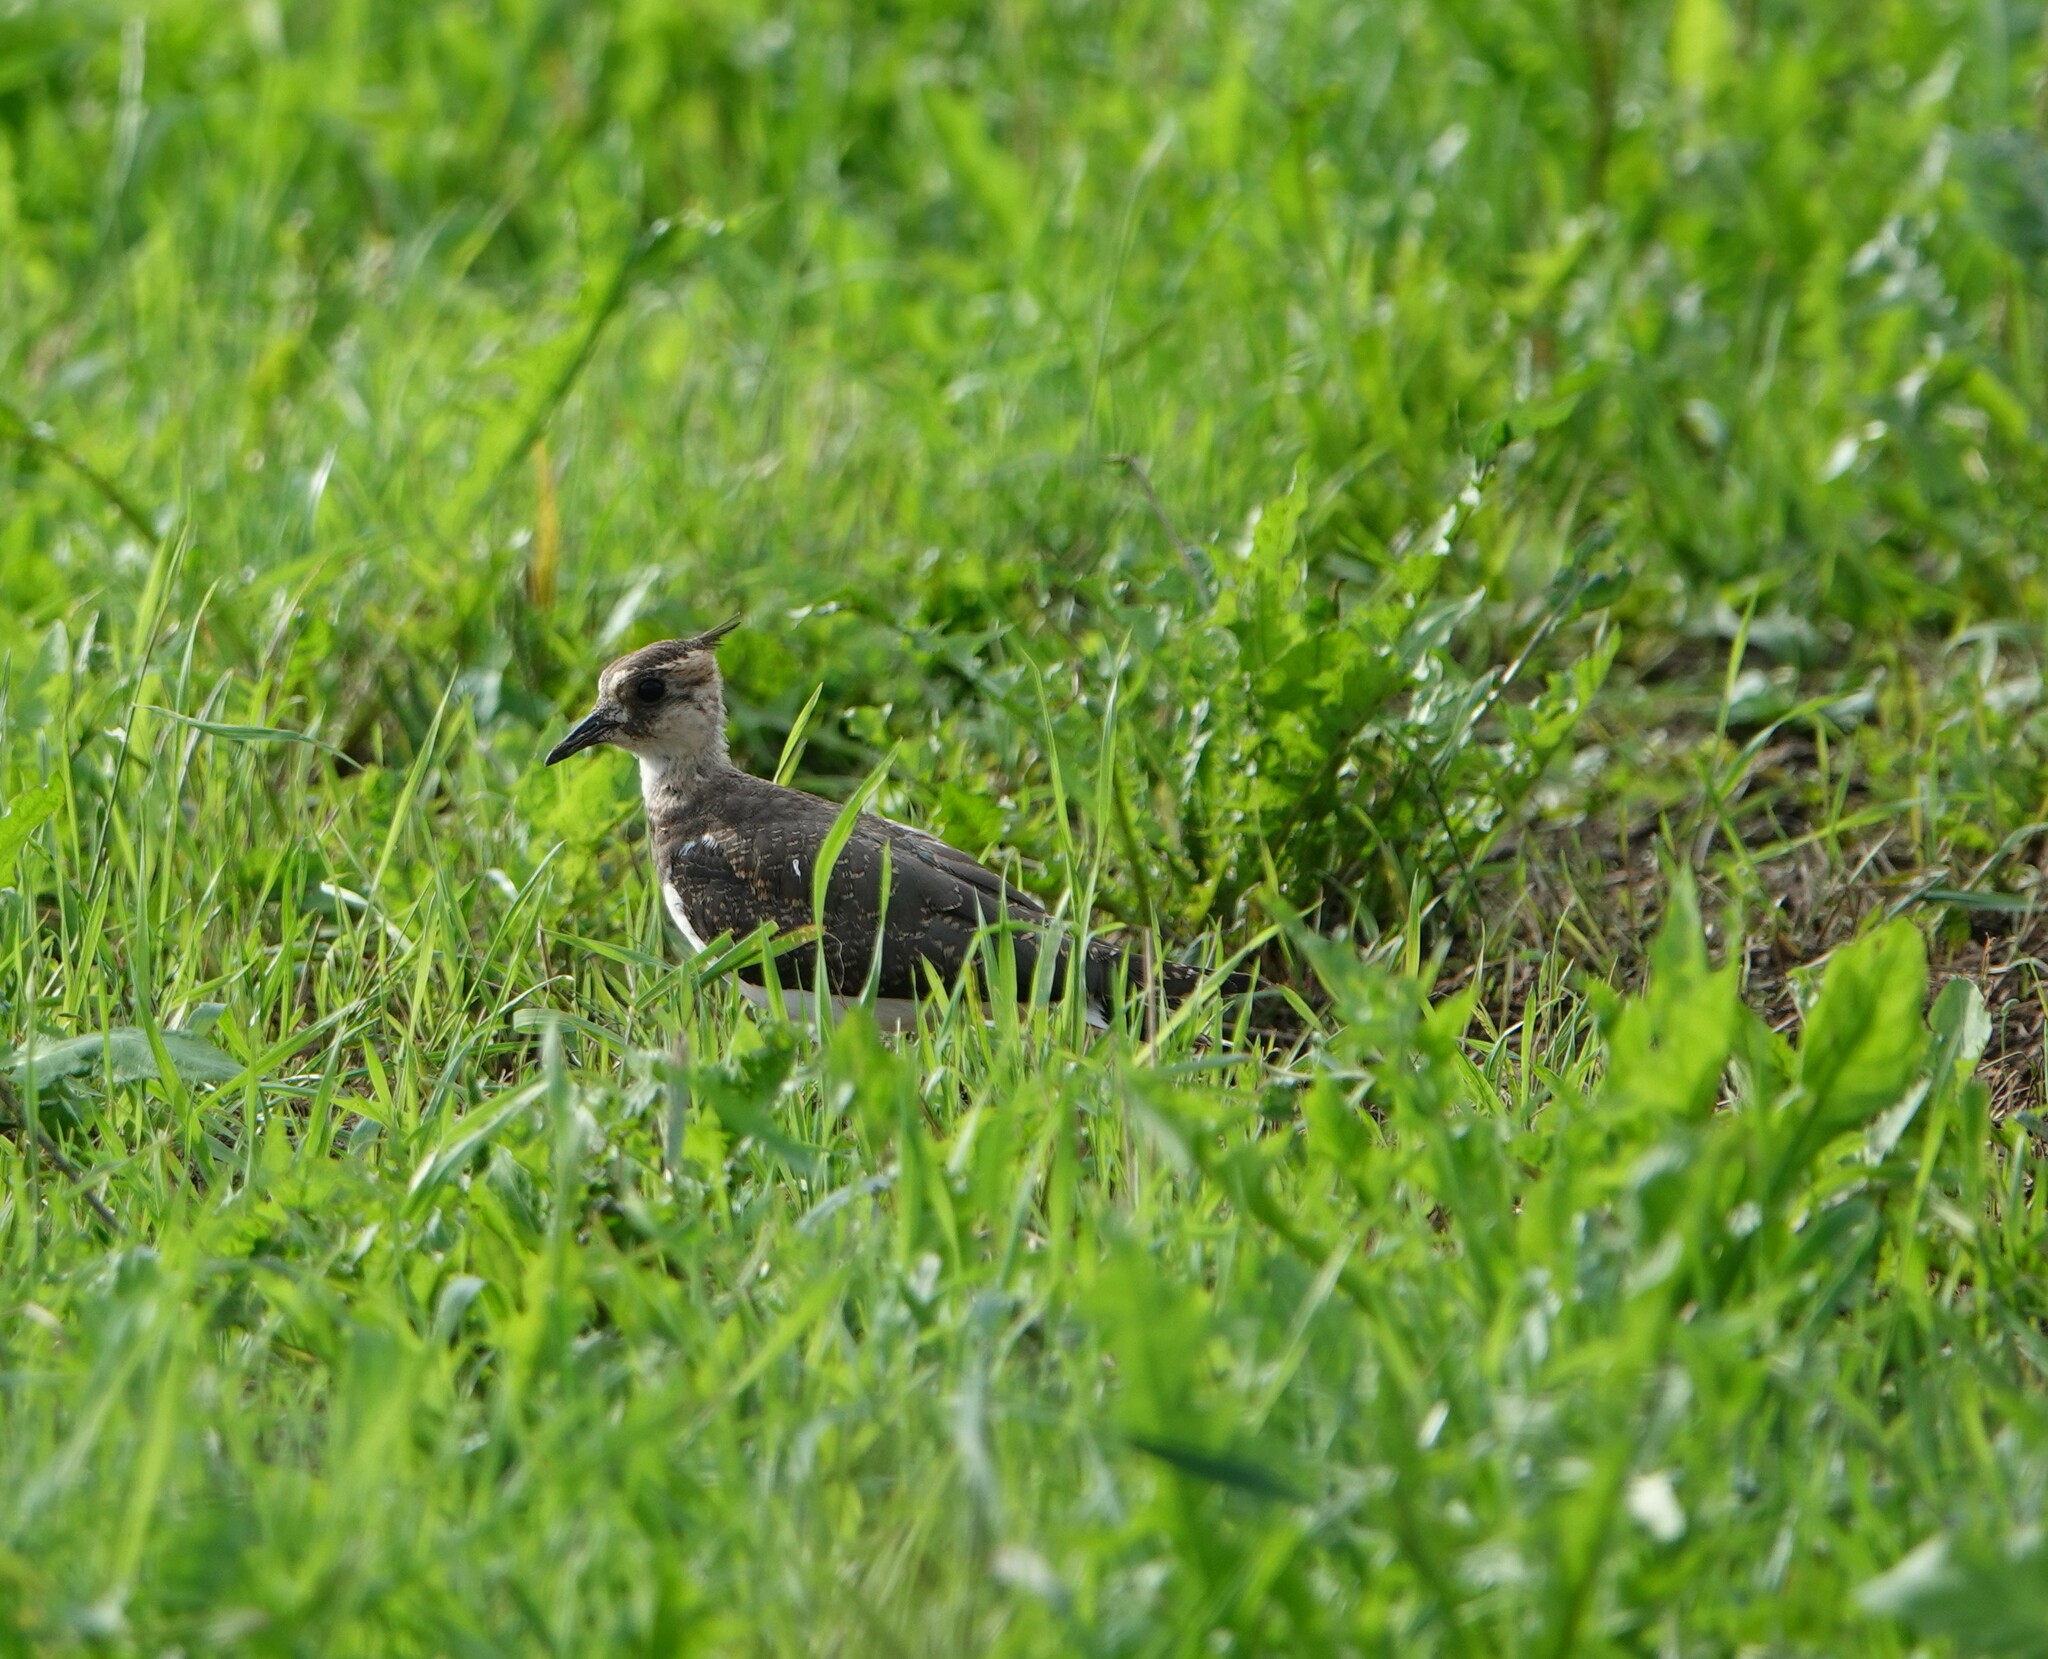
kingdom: Animalia
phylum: Chordata
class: Aves
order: Charadriiformes
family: Charadriidae
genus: Vanellus
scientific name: Vanellus vanellus
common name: Northern lapwing
